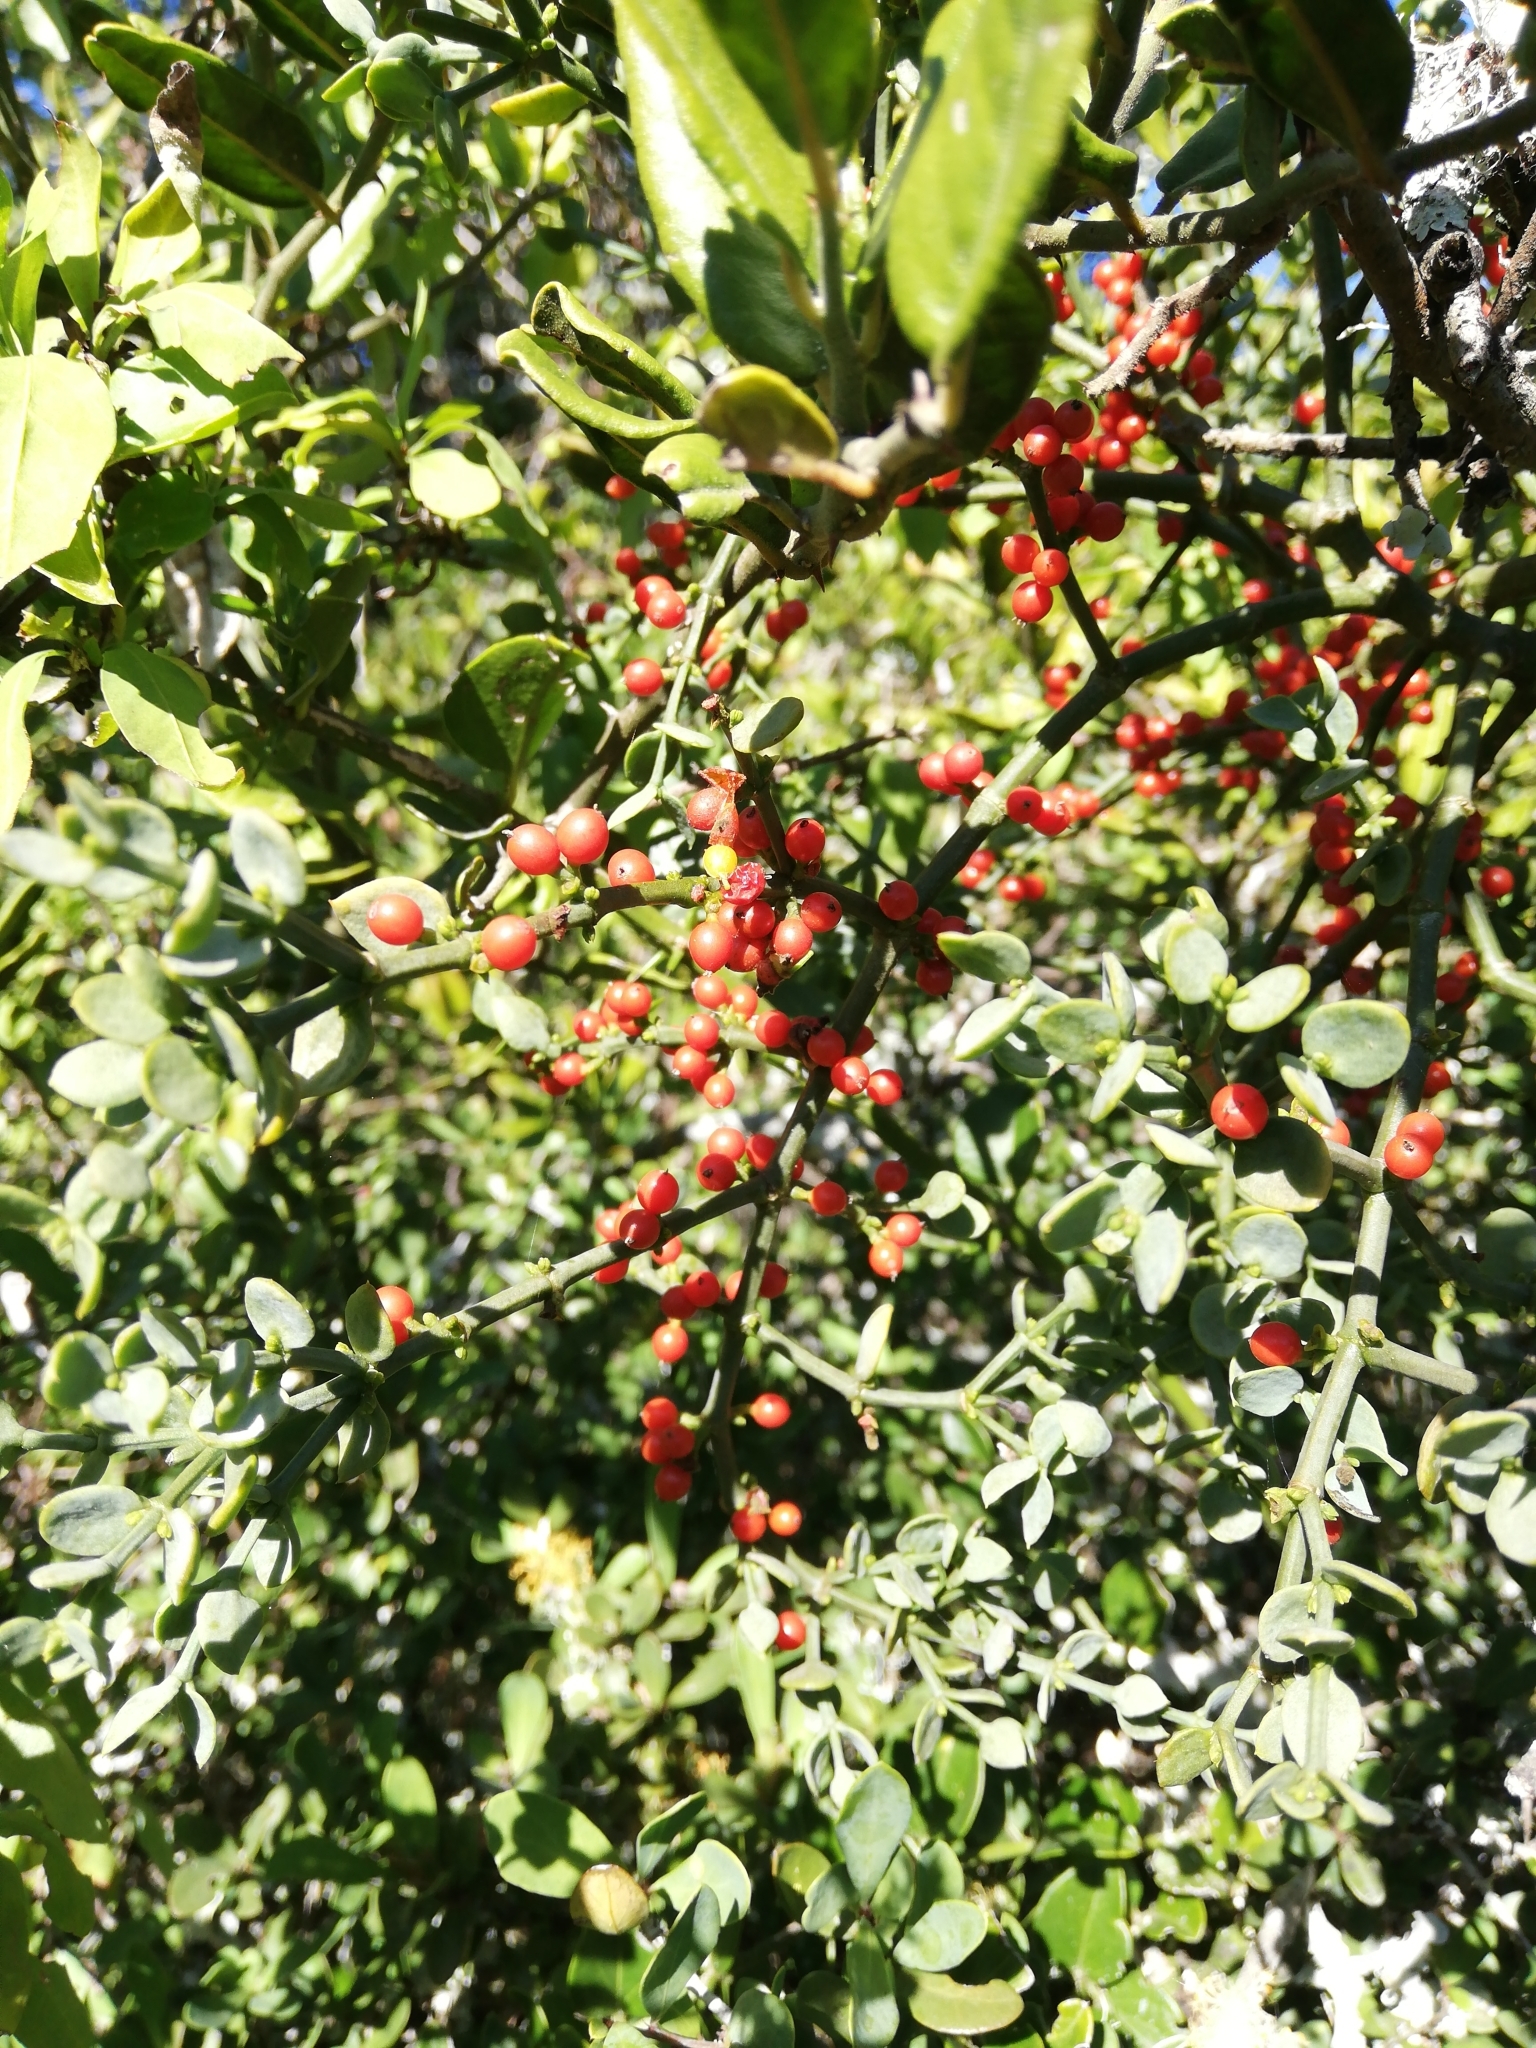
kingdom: Plantae
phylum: Tracheophyta
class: Magnoliopsida
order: Santalales
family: Viscaceae
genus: Viscum
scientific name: Viscum rotundifolium
